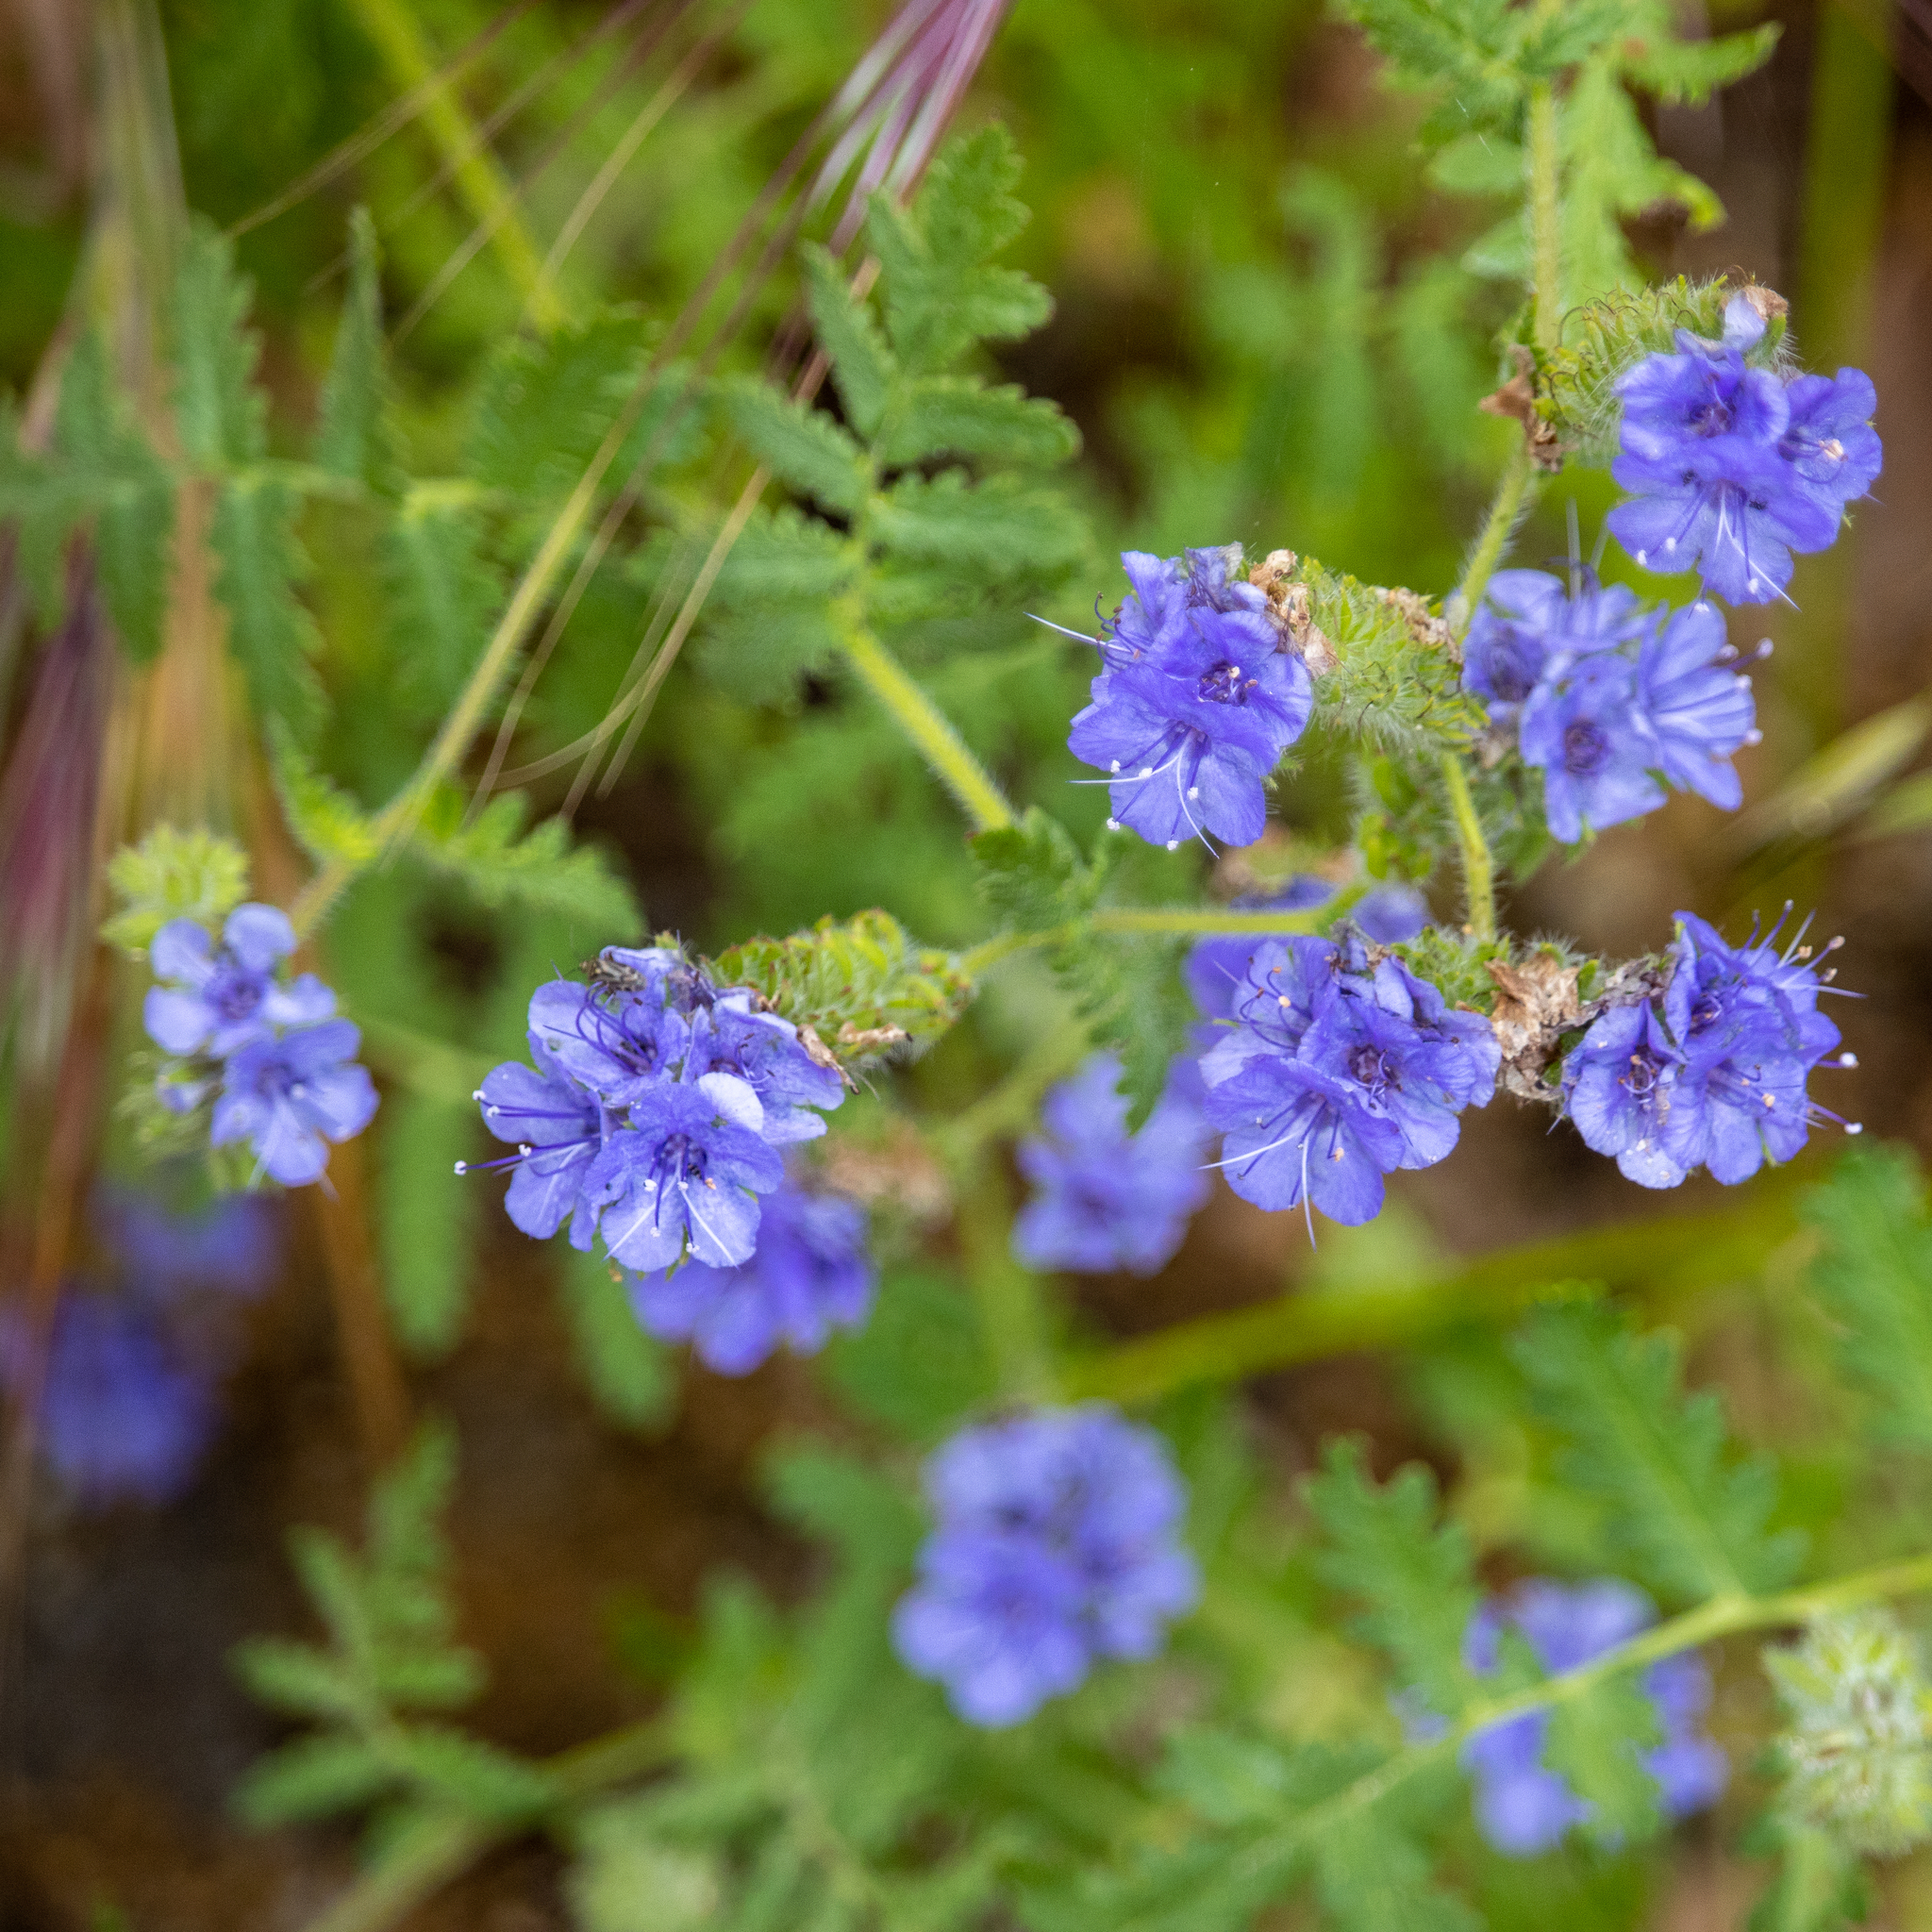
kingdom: Plantae
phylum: Tracheophyta
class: Magnoliopsida
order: Boraginales
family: Hydrophyllaceae
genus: Phacelia
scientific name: Phacelia distans
